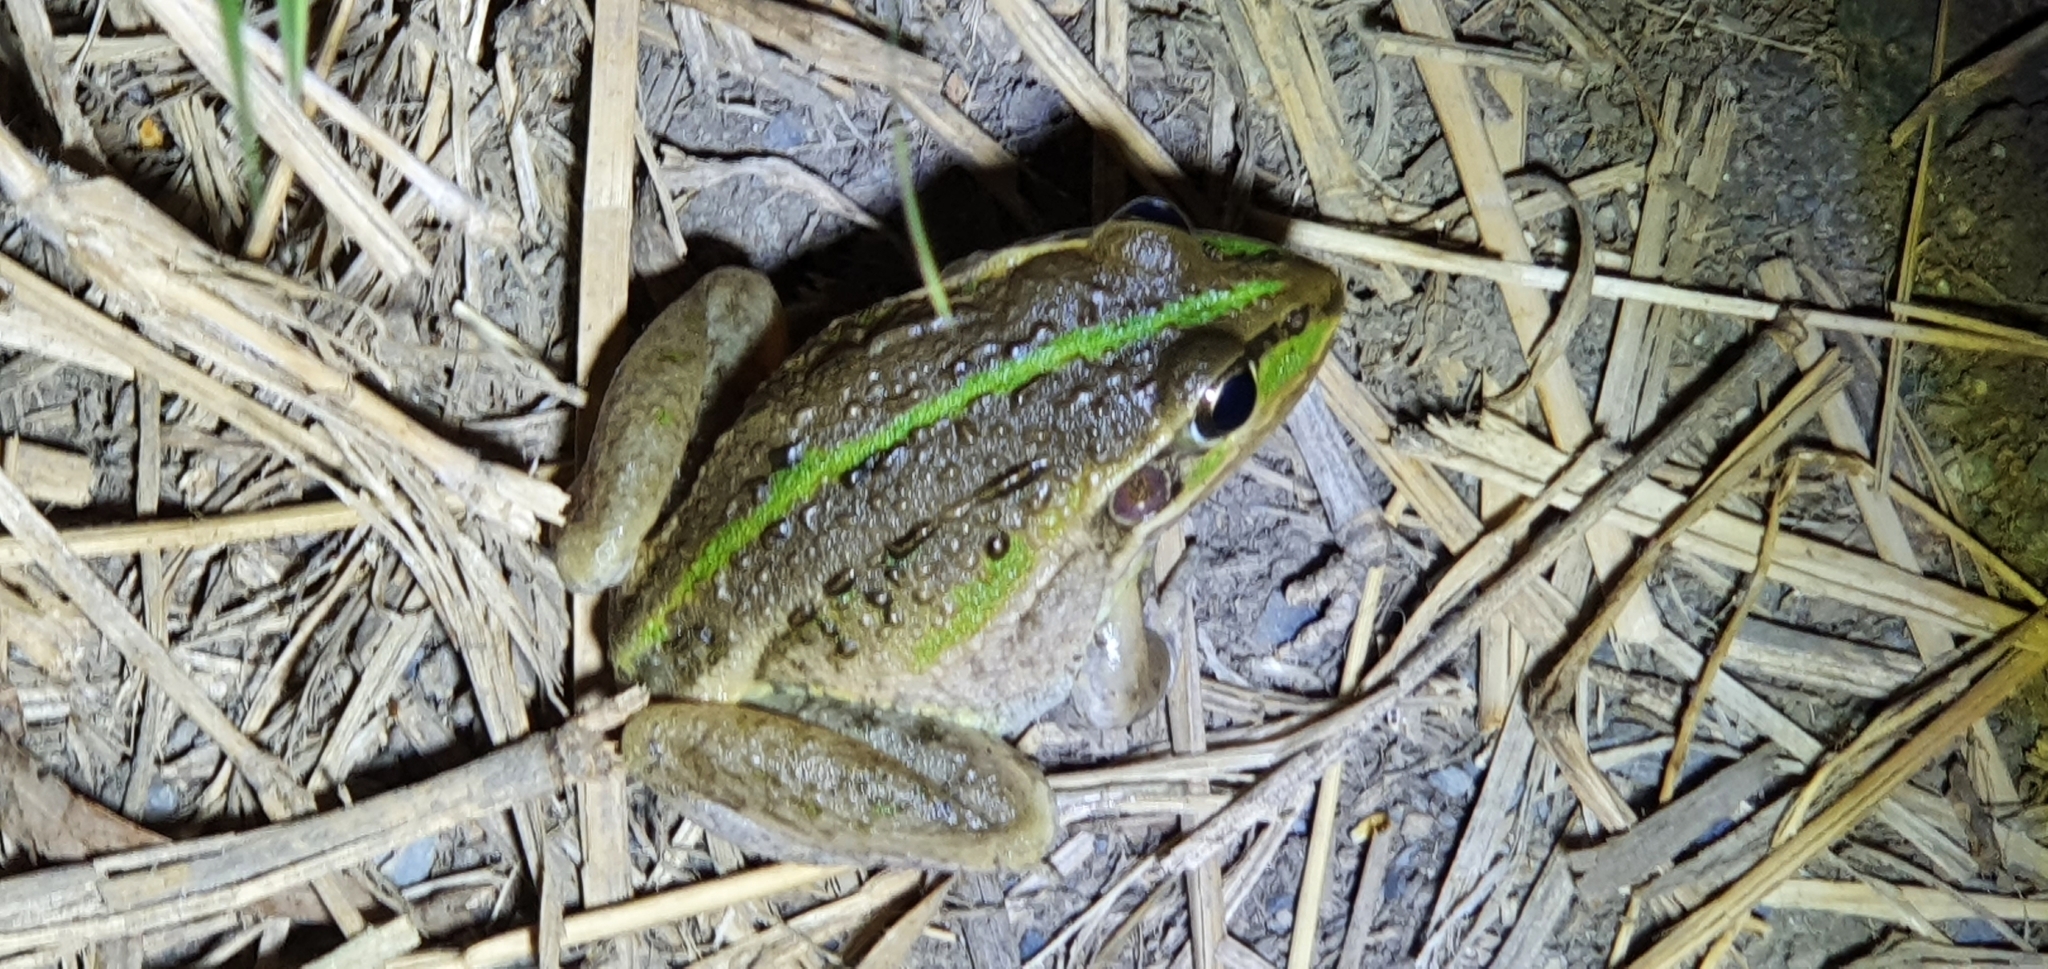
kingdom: Animalia
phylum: Chordata
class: Amphibia
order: Anura
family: Pelodryadidae
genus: Ranoidea
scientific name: Ranoidea alboguttata
